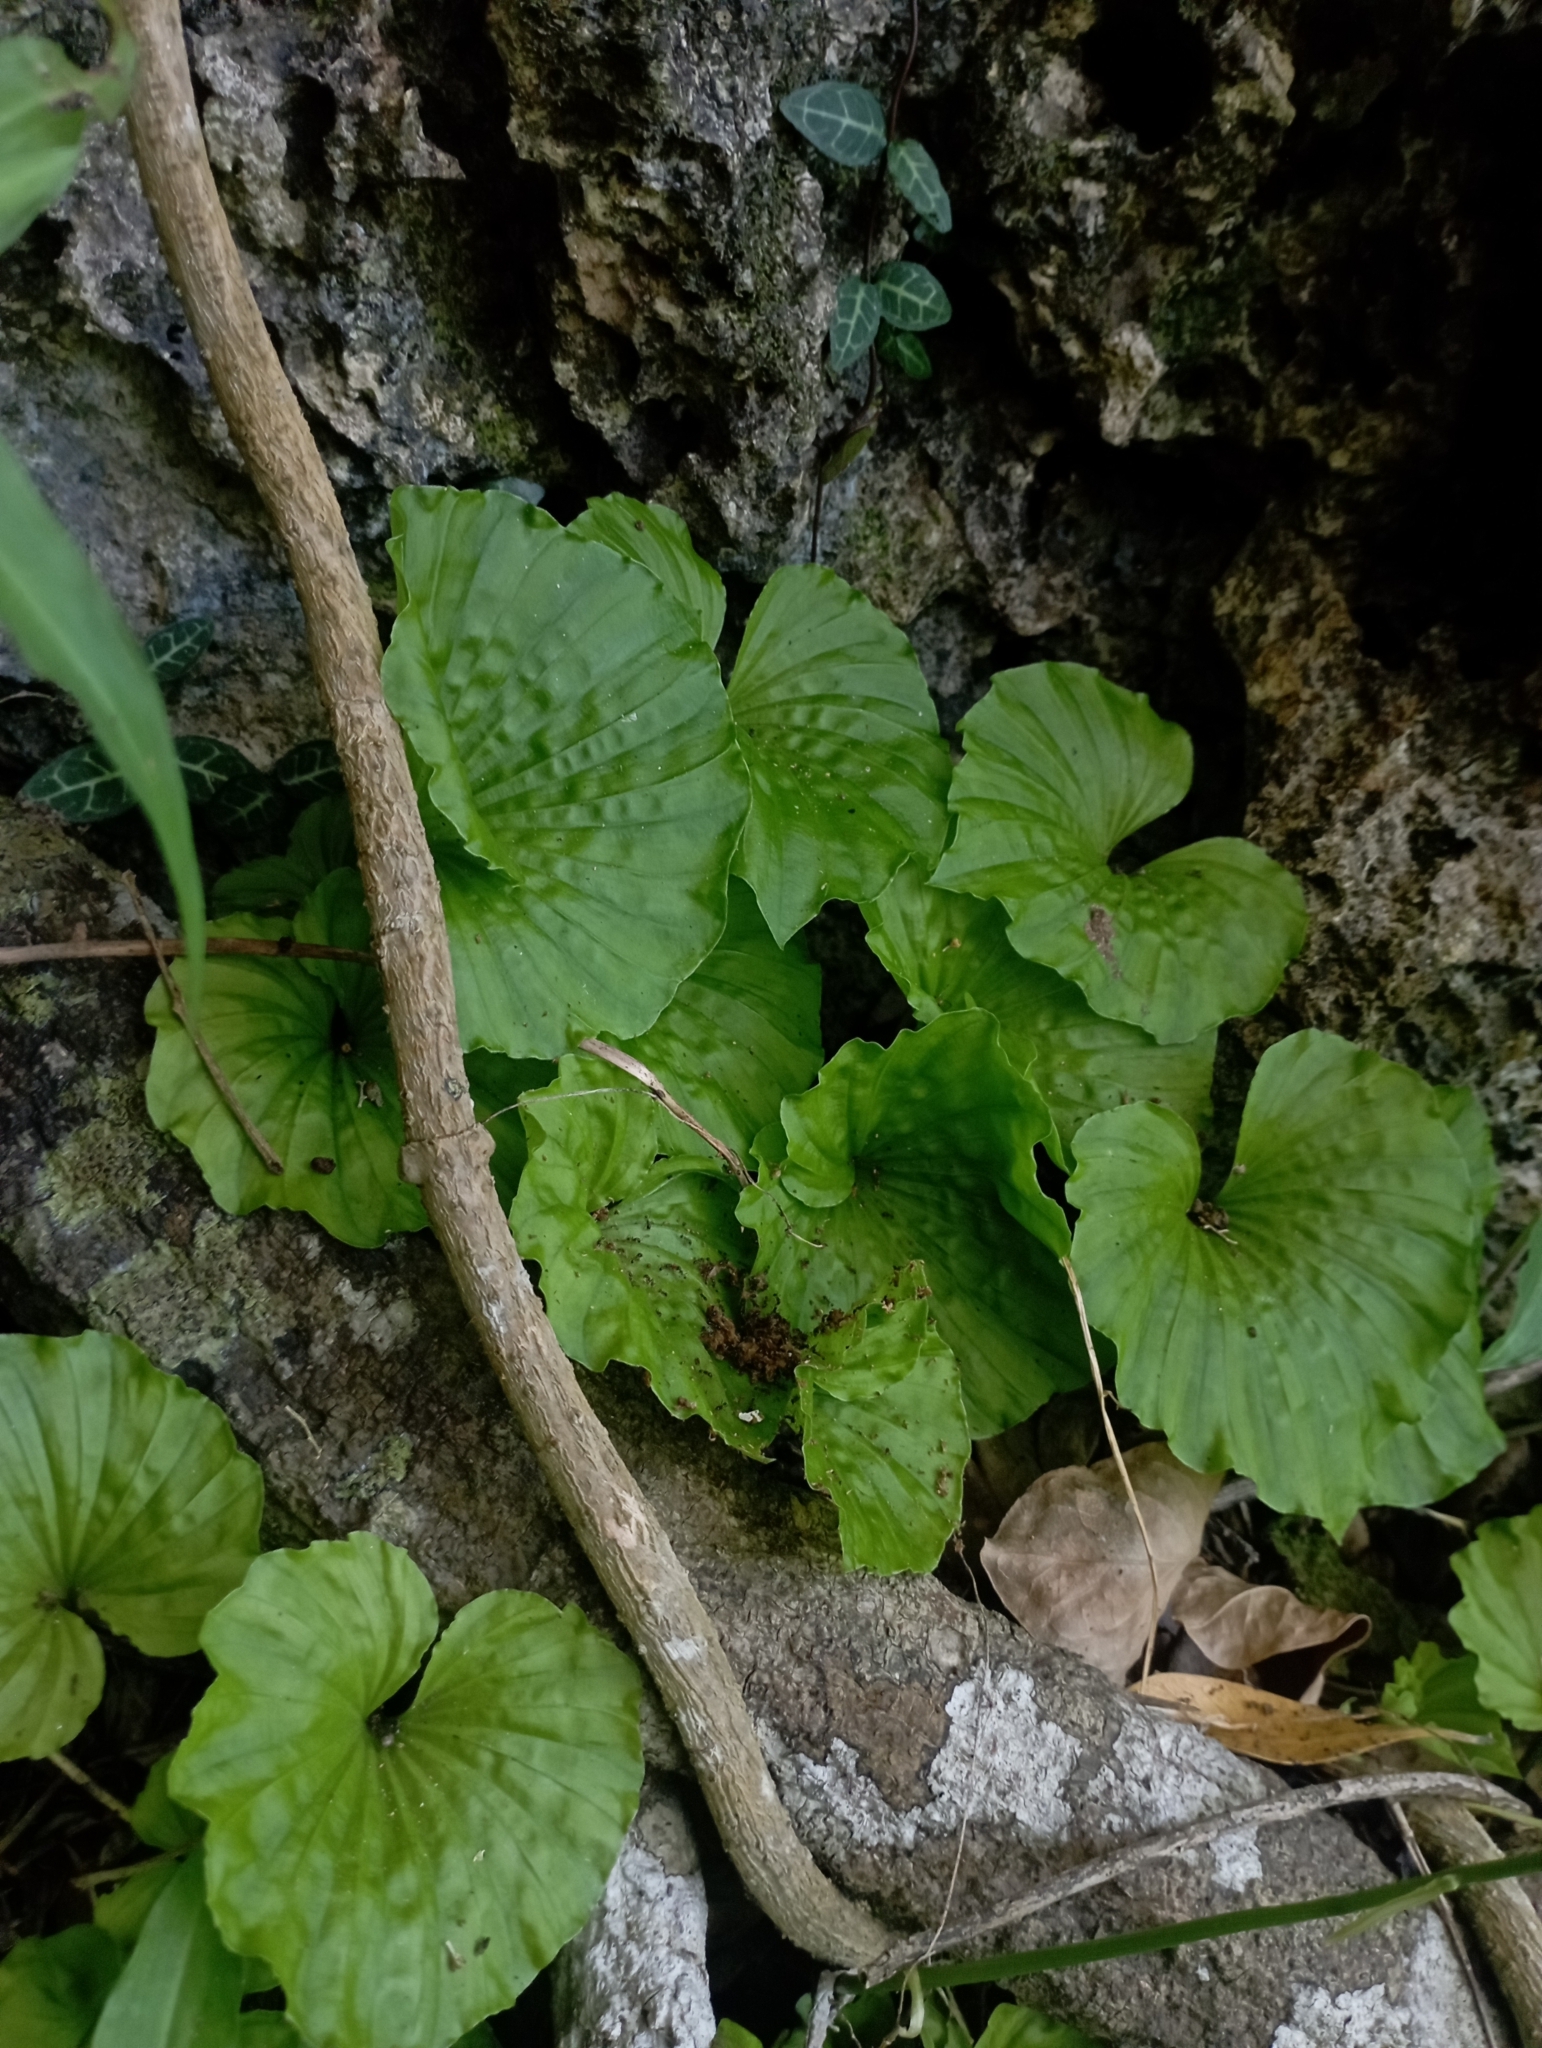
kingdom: Plantae
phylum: Tracheophyta
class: Liliopsida
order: Asparagales
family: Orchidaceae
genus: Nervilia
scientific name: Nervilia concolor
